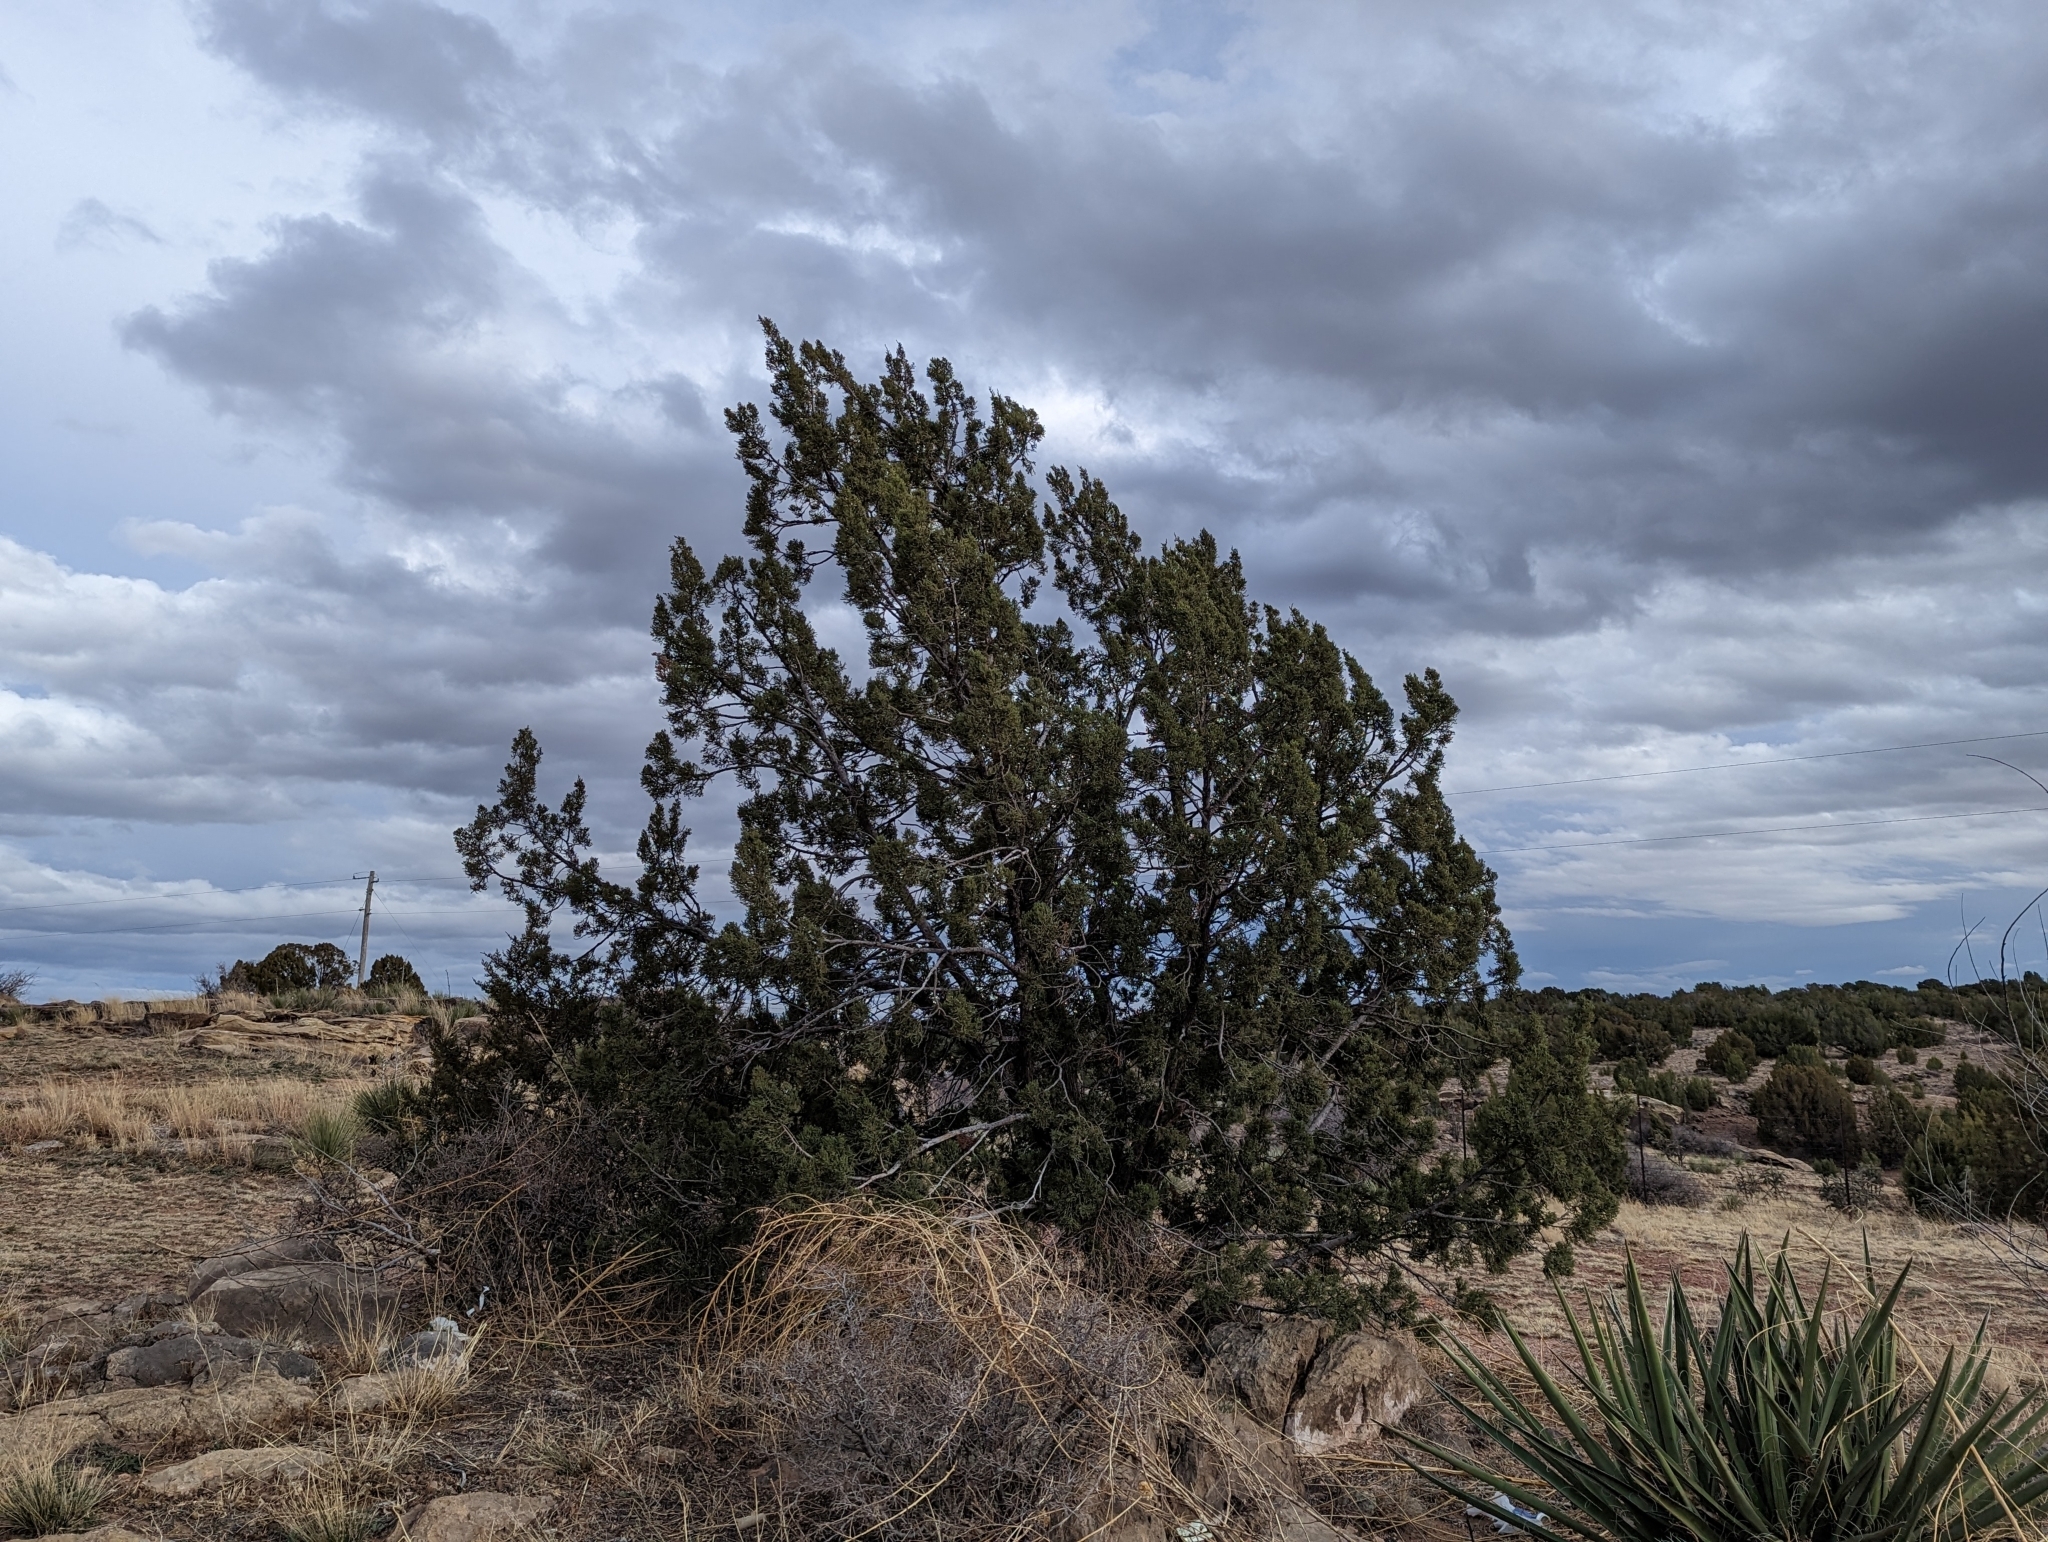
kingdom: Plantae
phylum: Tracheophyta
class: Pinopsida
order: Pinales
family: Cupressaceae
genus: Juniperus
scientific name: Juniperus monosperma
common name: One-seed juniper
